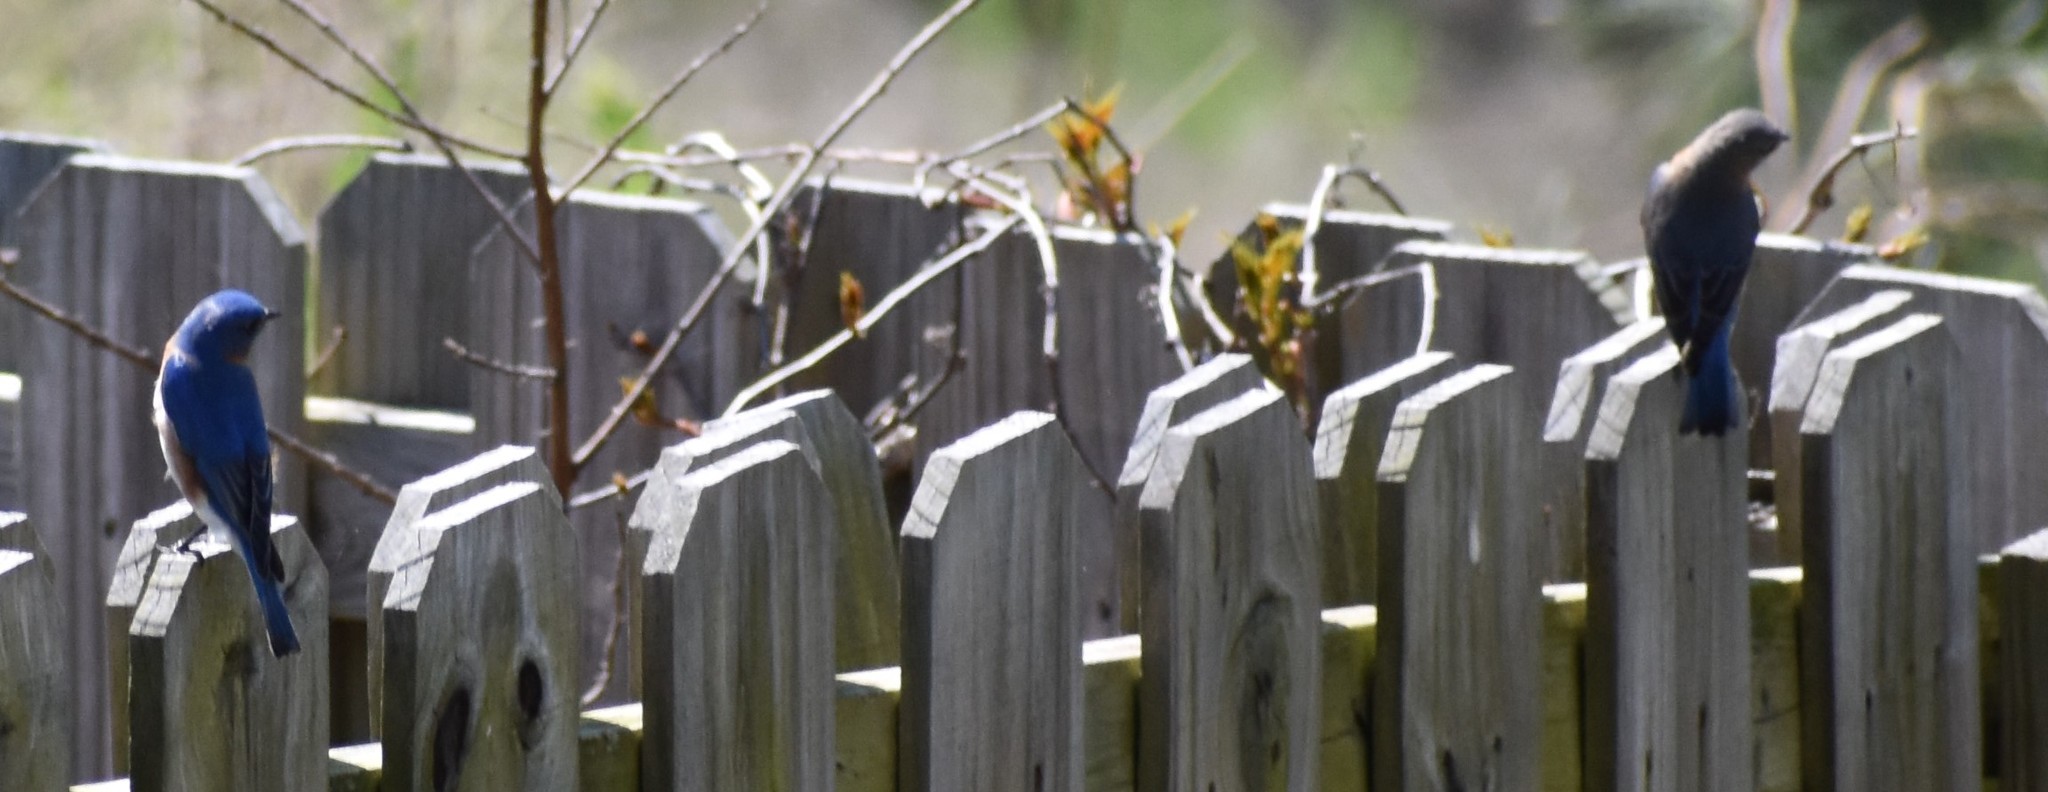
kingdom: Animalia
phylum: Chordata
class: Aves
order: Passeriformes
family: Turdidae
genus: Sialia
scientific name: Sialia sialis
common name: Eastern bluebird
